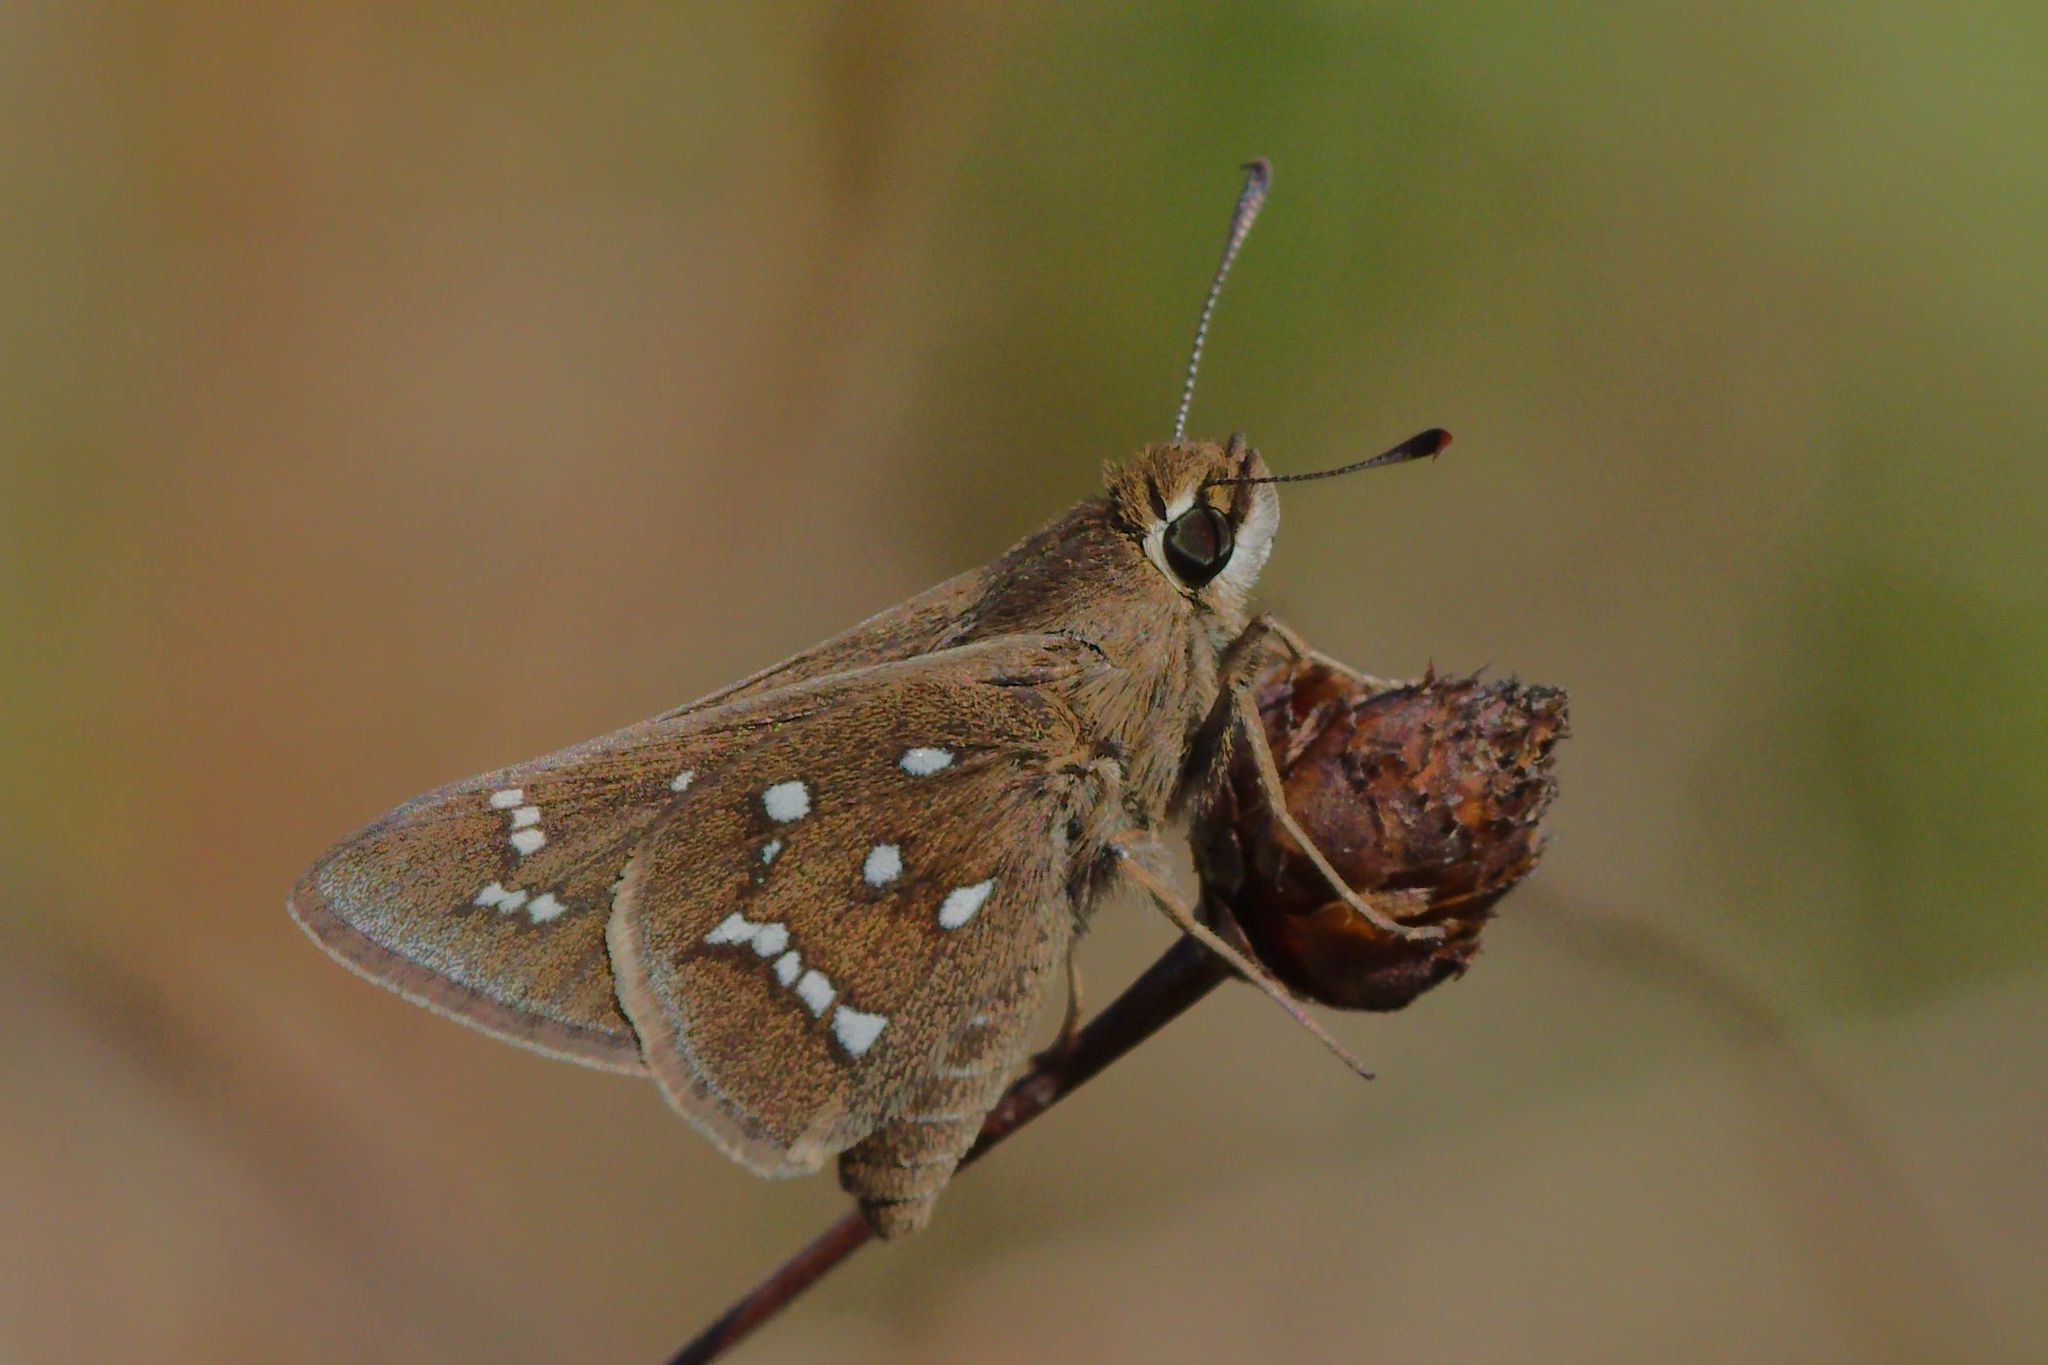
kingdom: Animalia
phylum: Arthropoda
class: Insecta
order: Lepidoptera
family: Hesperiidae
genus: Atrytonopsis
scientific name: Atrytonopsis loammi
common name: Loammi skipper
